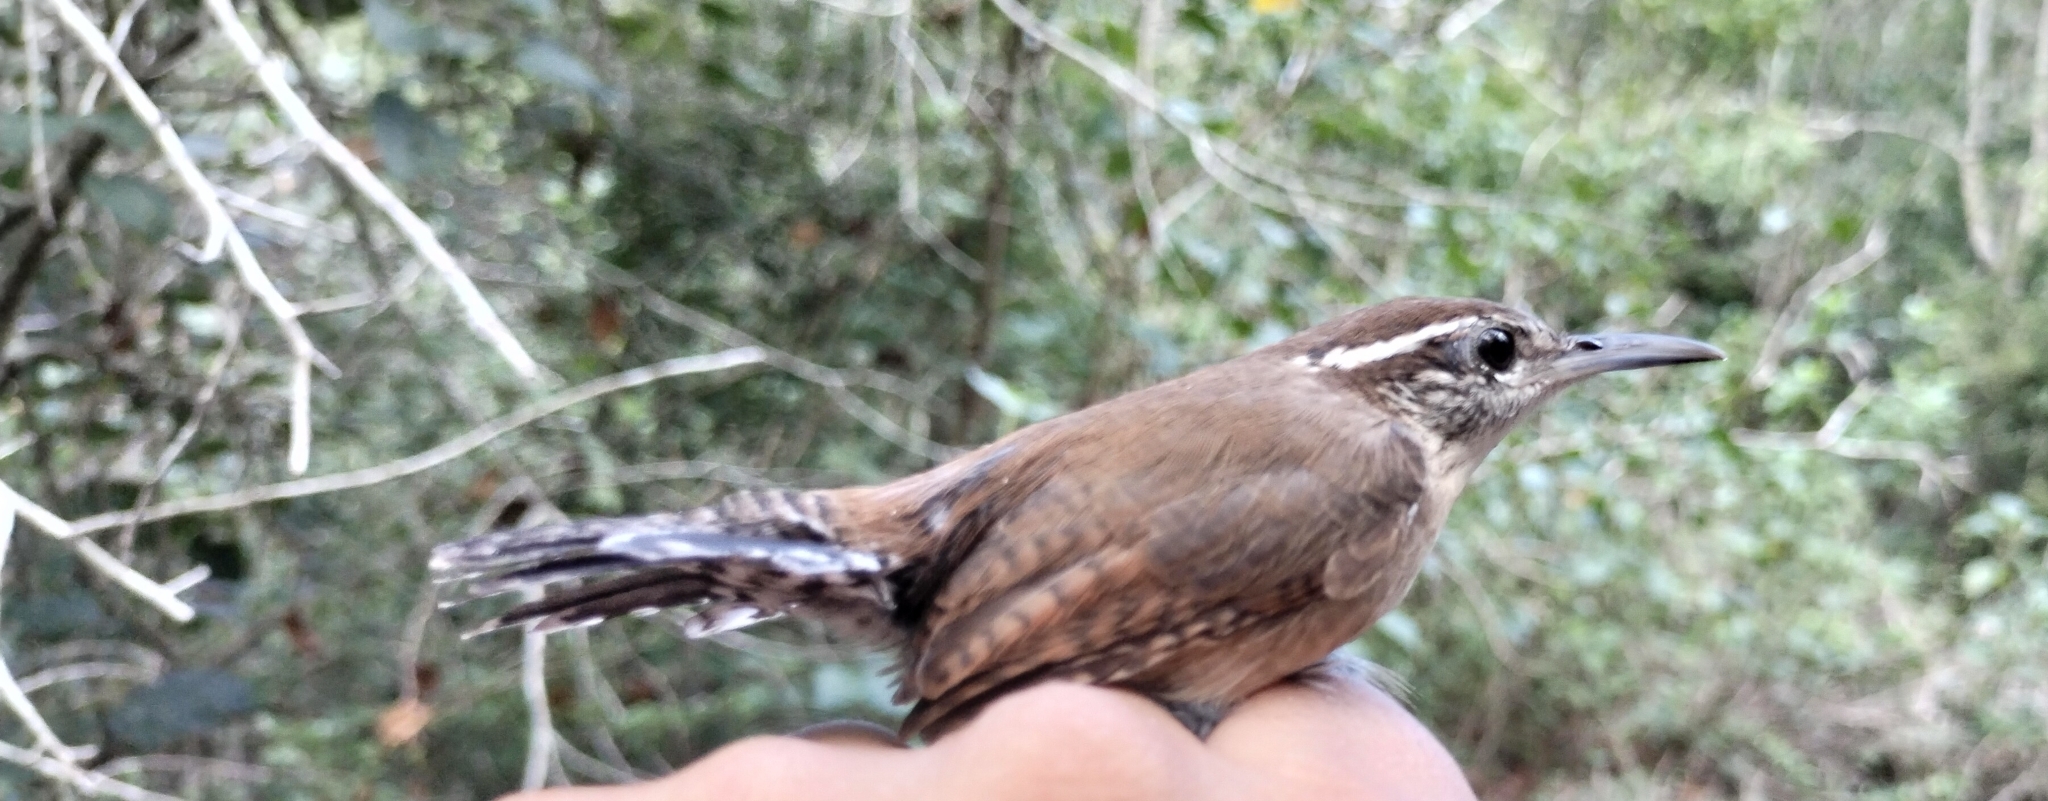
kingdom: Animalia
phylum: Chordata
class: Aves
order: Passeriformes
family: Troglodytidae
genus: Thryothorus
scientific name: Thryothorus ludovicianus
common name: Carolina wren
